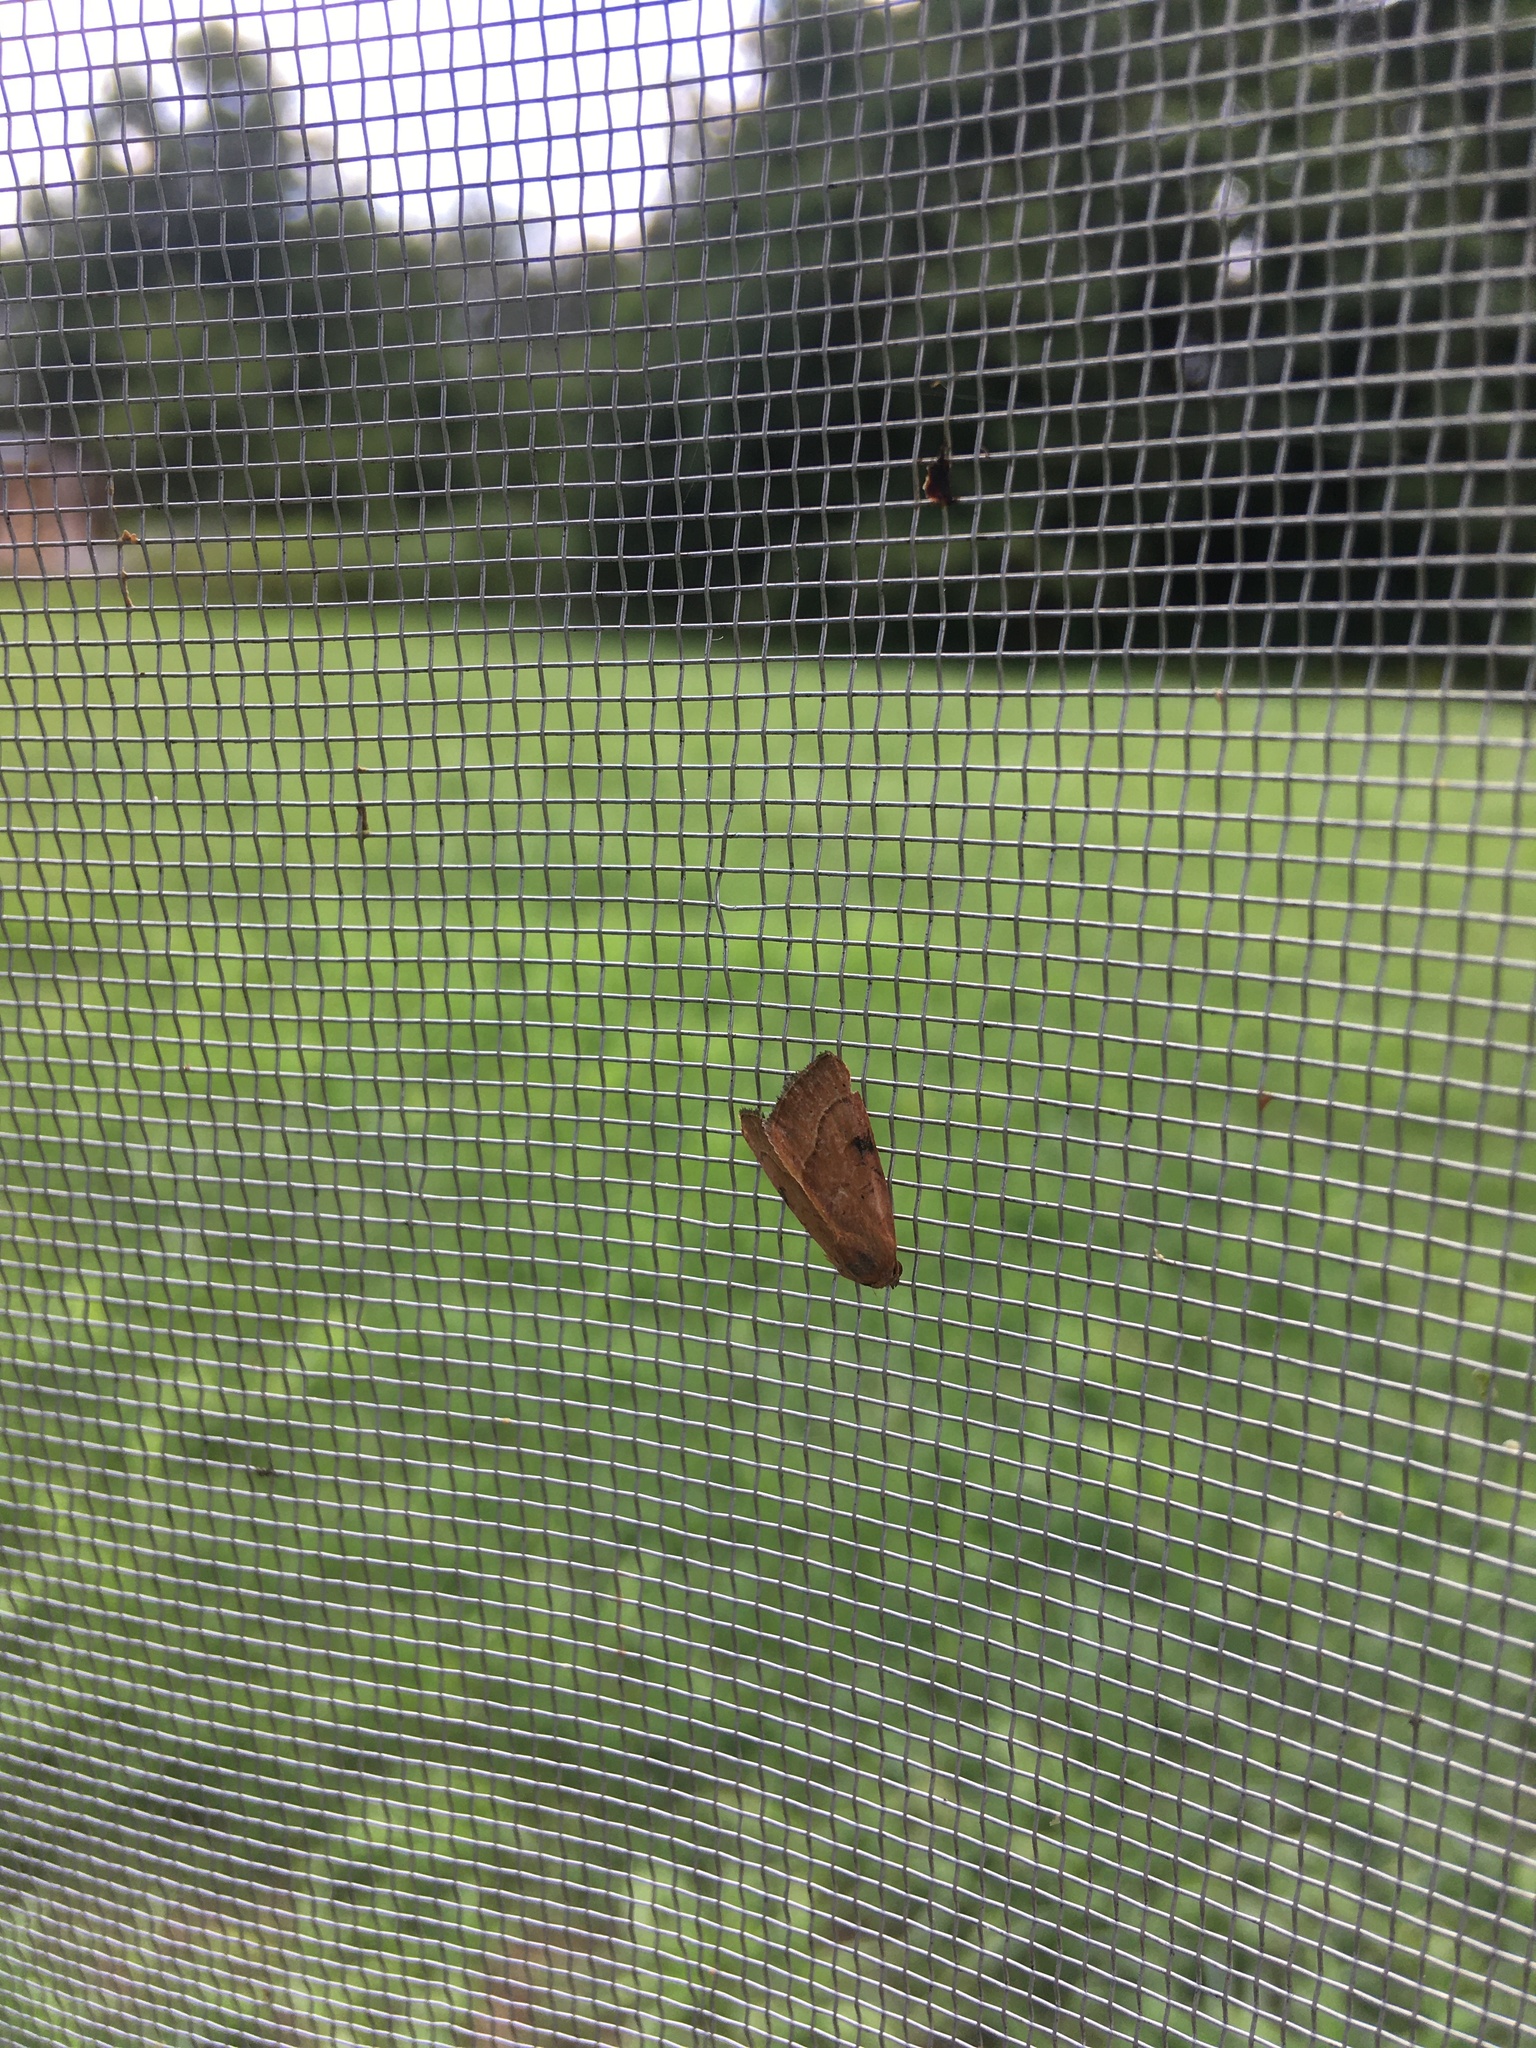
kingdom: Animalia
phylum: Arthropoda
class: Insecta
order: Lepidoptera
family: Noctuidae
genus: Galgula
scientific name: Galgula partita
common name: Wedgeling
